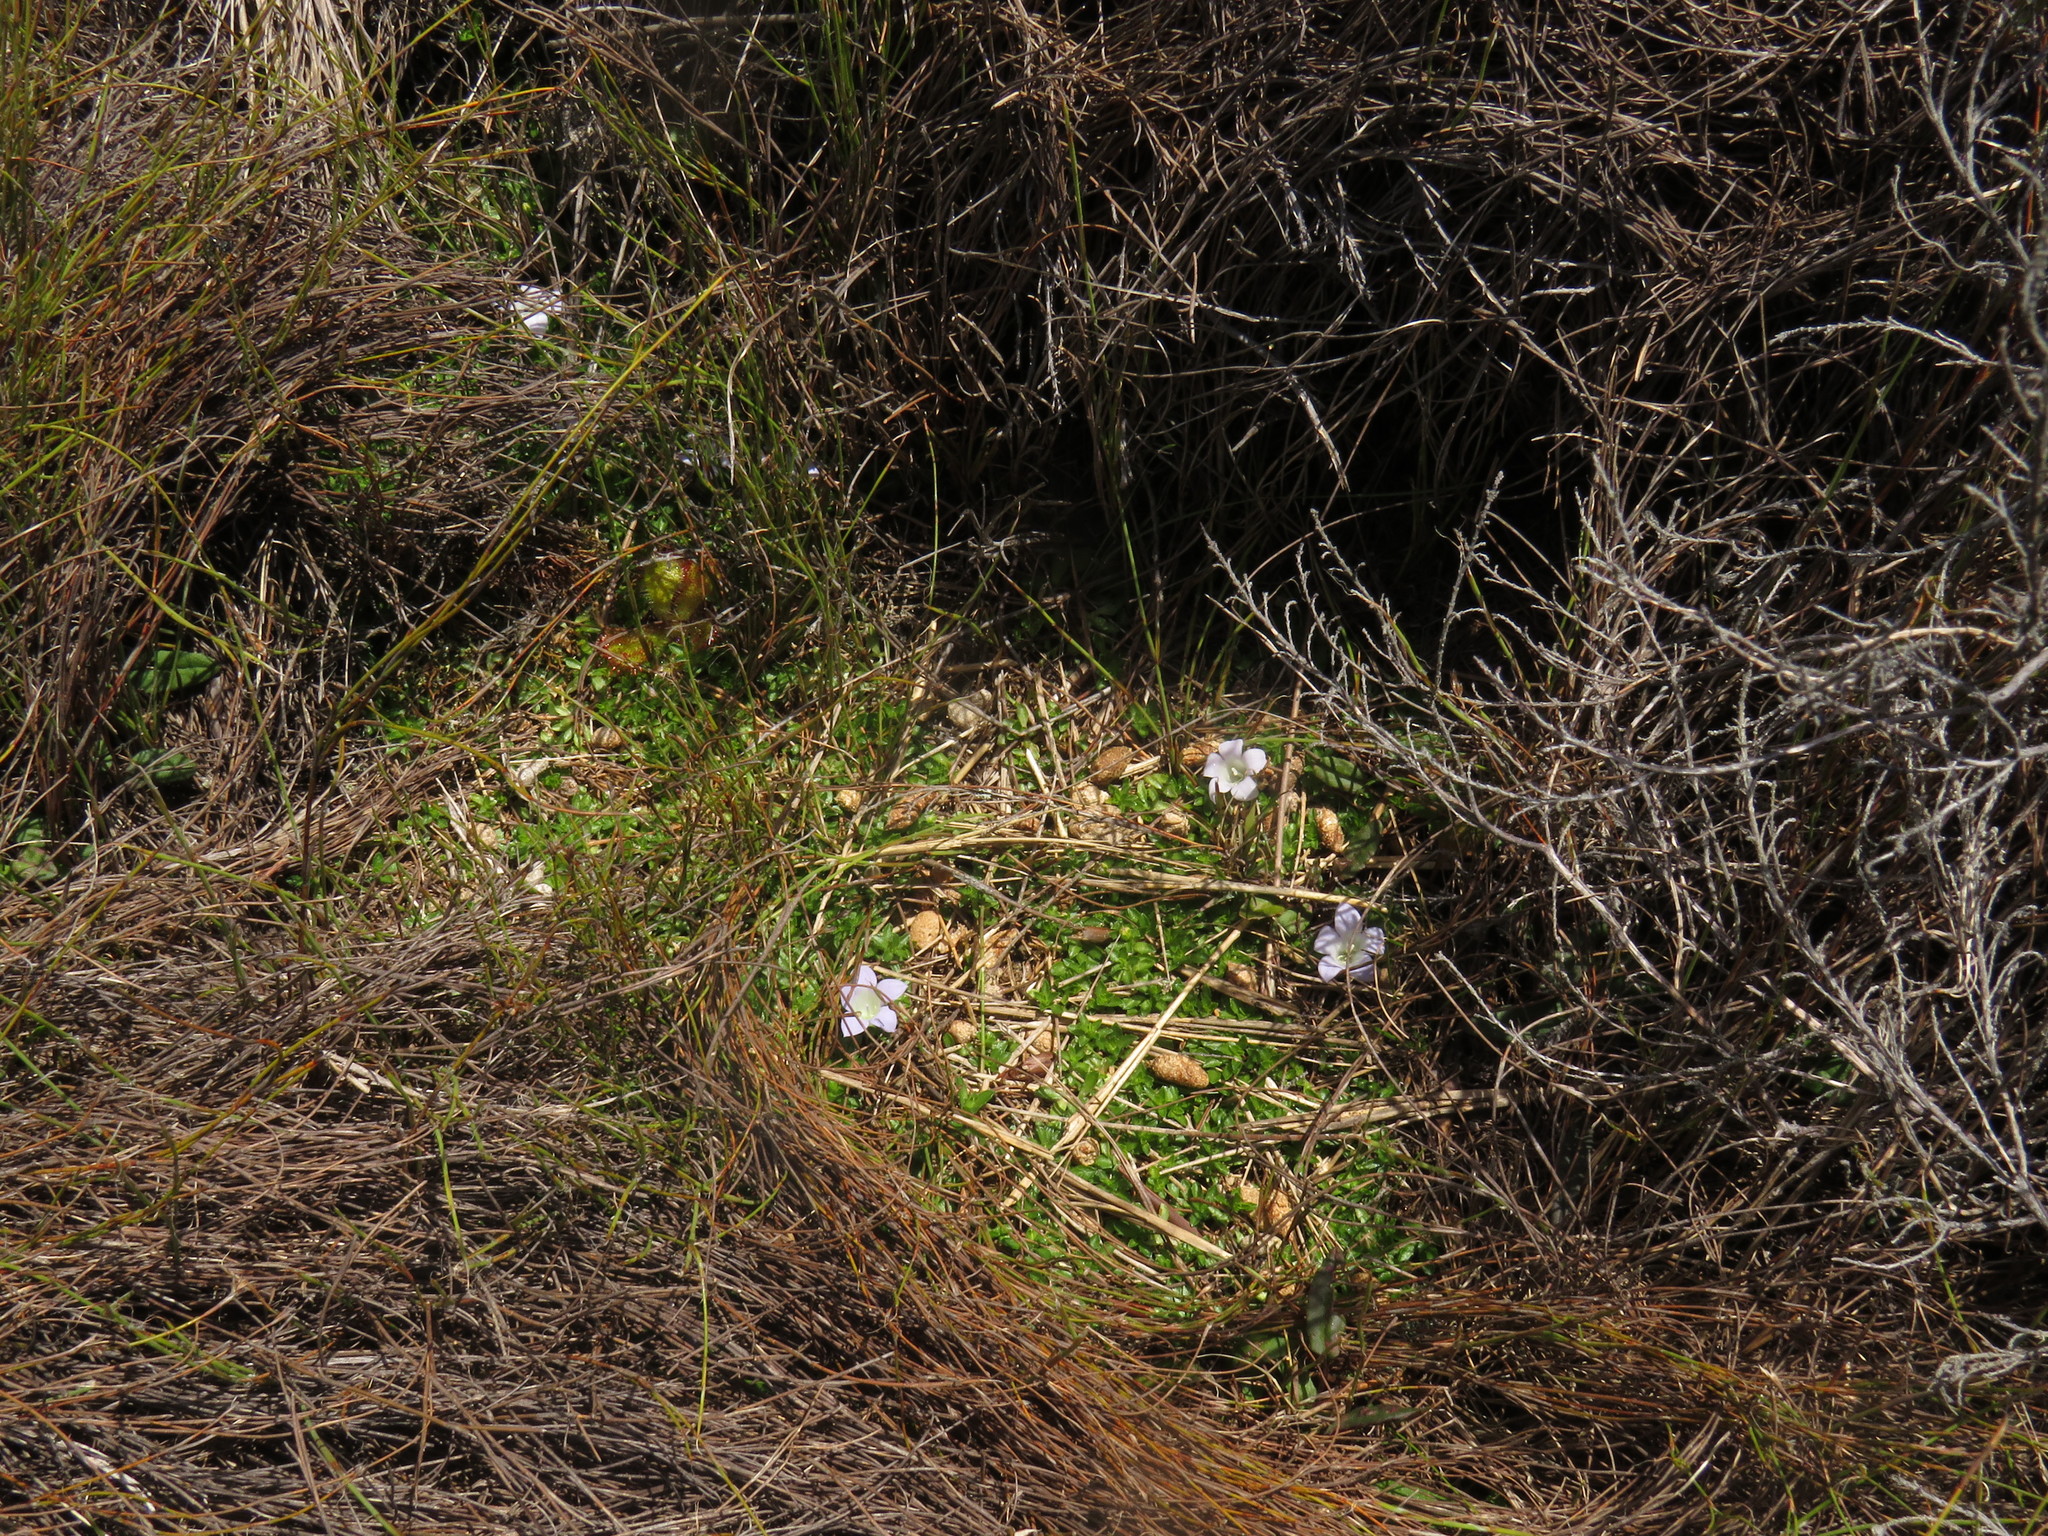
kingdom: Plantae
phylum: Tracheophyta
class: Magnoliopsida
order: Asterales
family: Campanulaceae
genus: Roella
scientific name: Roella muscosa
